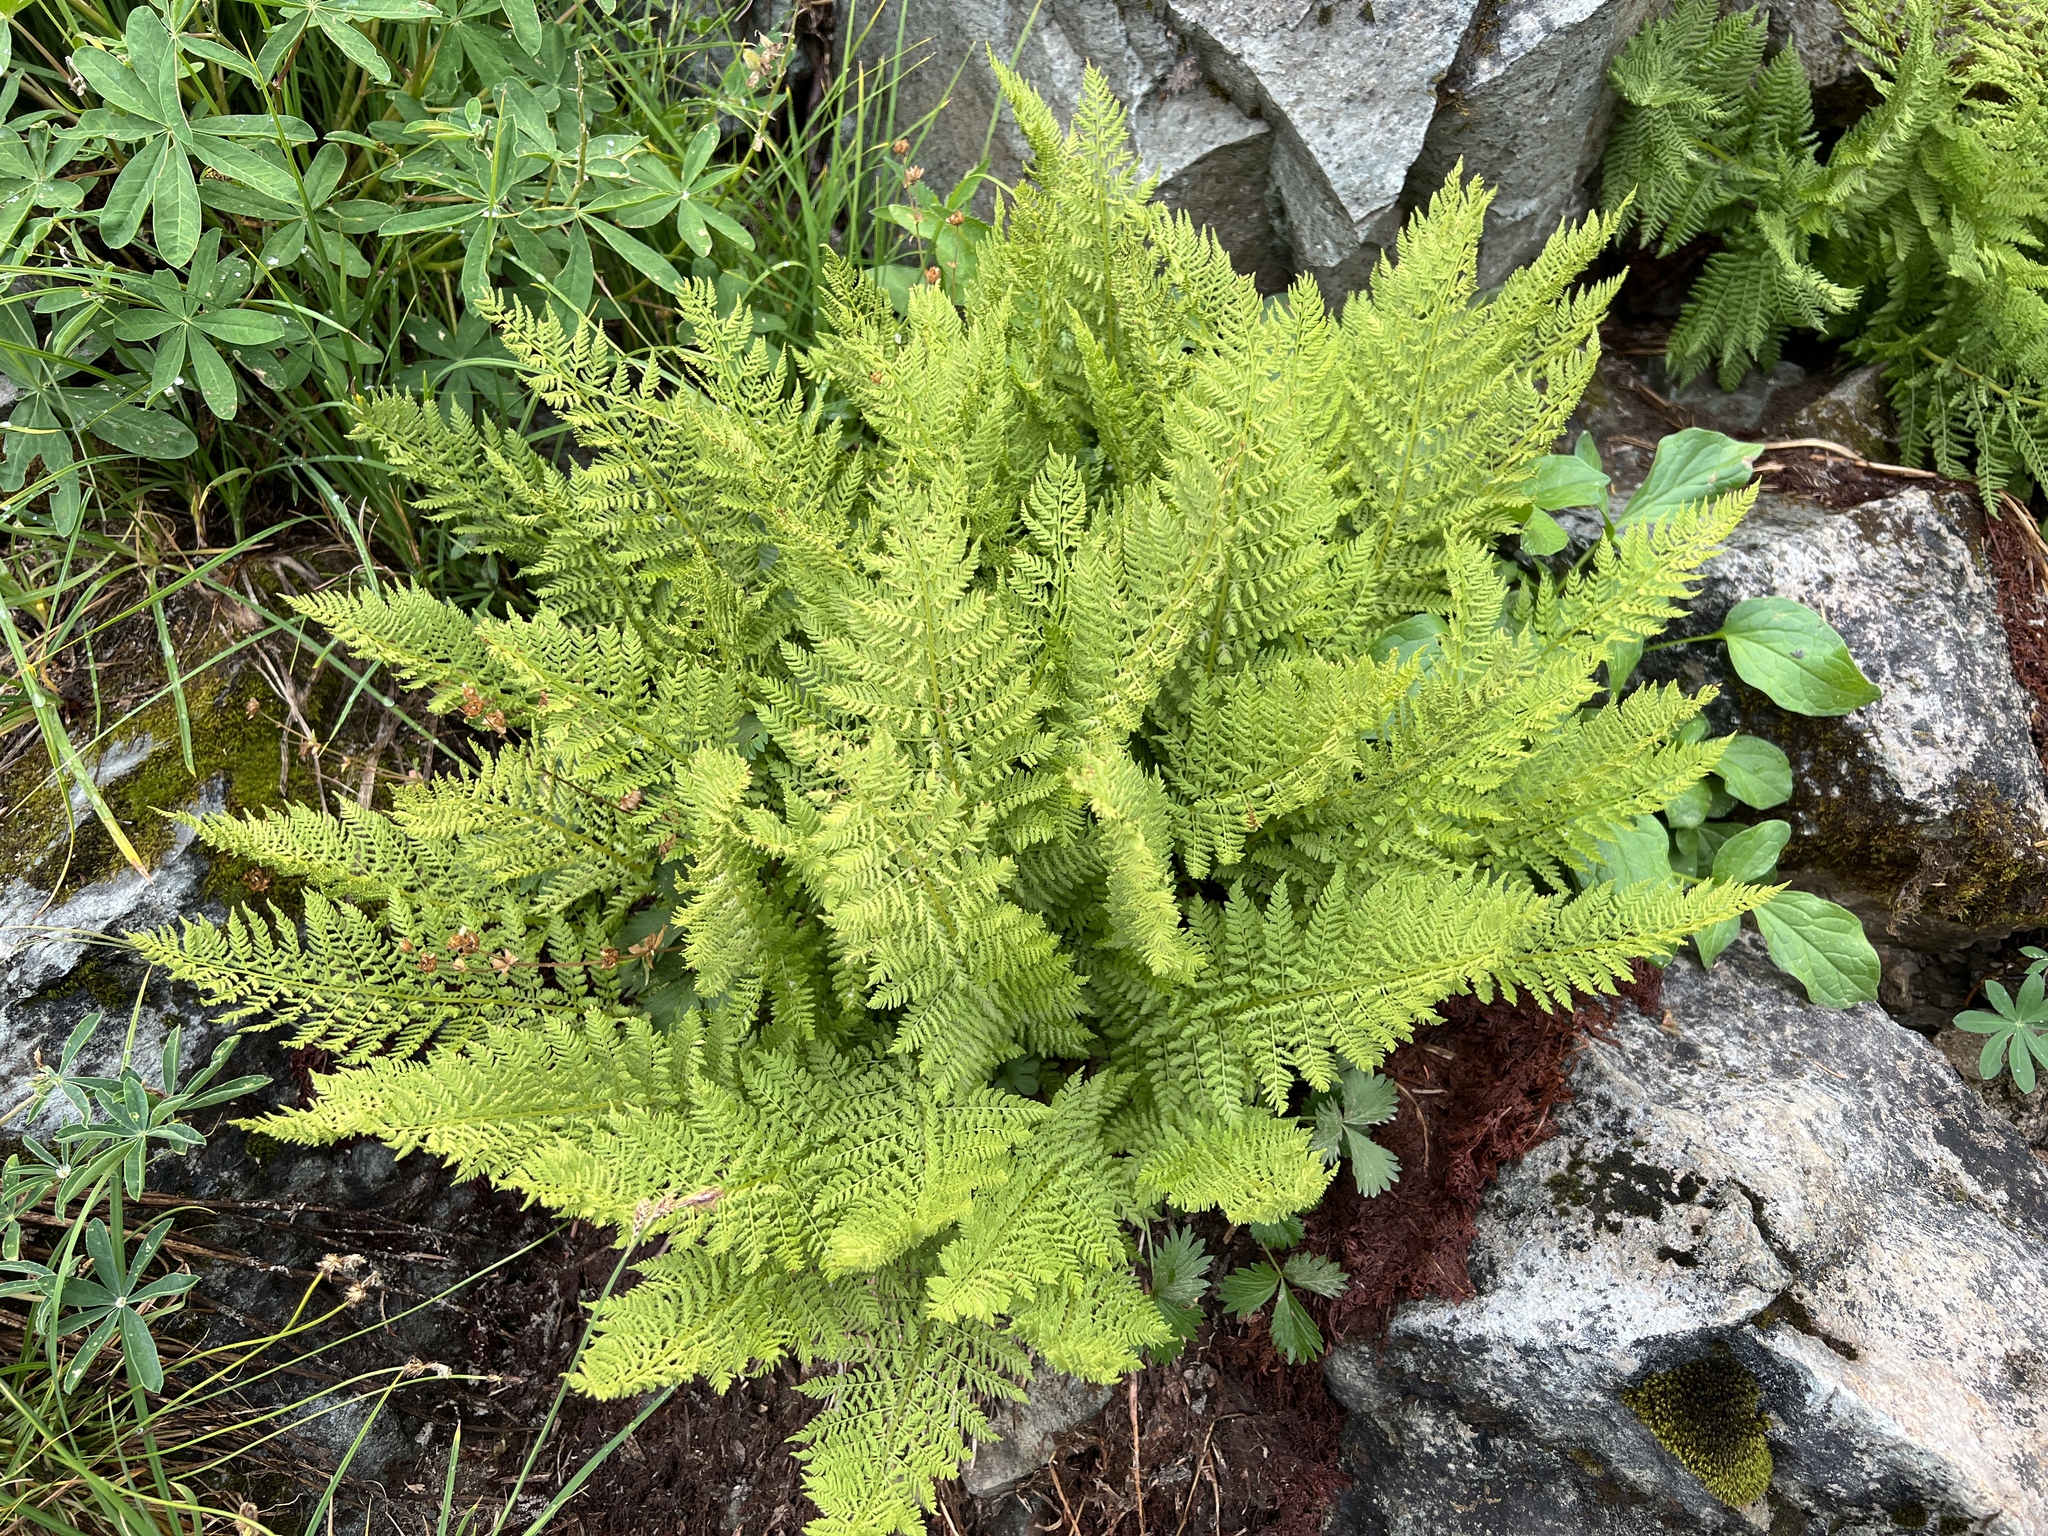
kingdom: Plantae
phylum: Tracheophyta
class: Polypodiopsida
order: Polypodiales
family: Athyriaceae
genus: Athyrium
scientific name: Athyrium americanum
